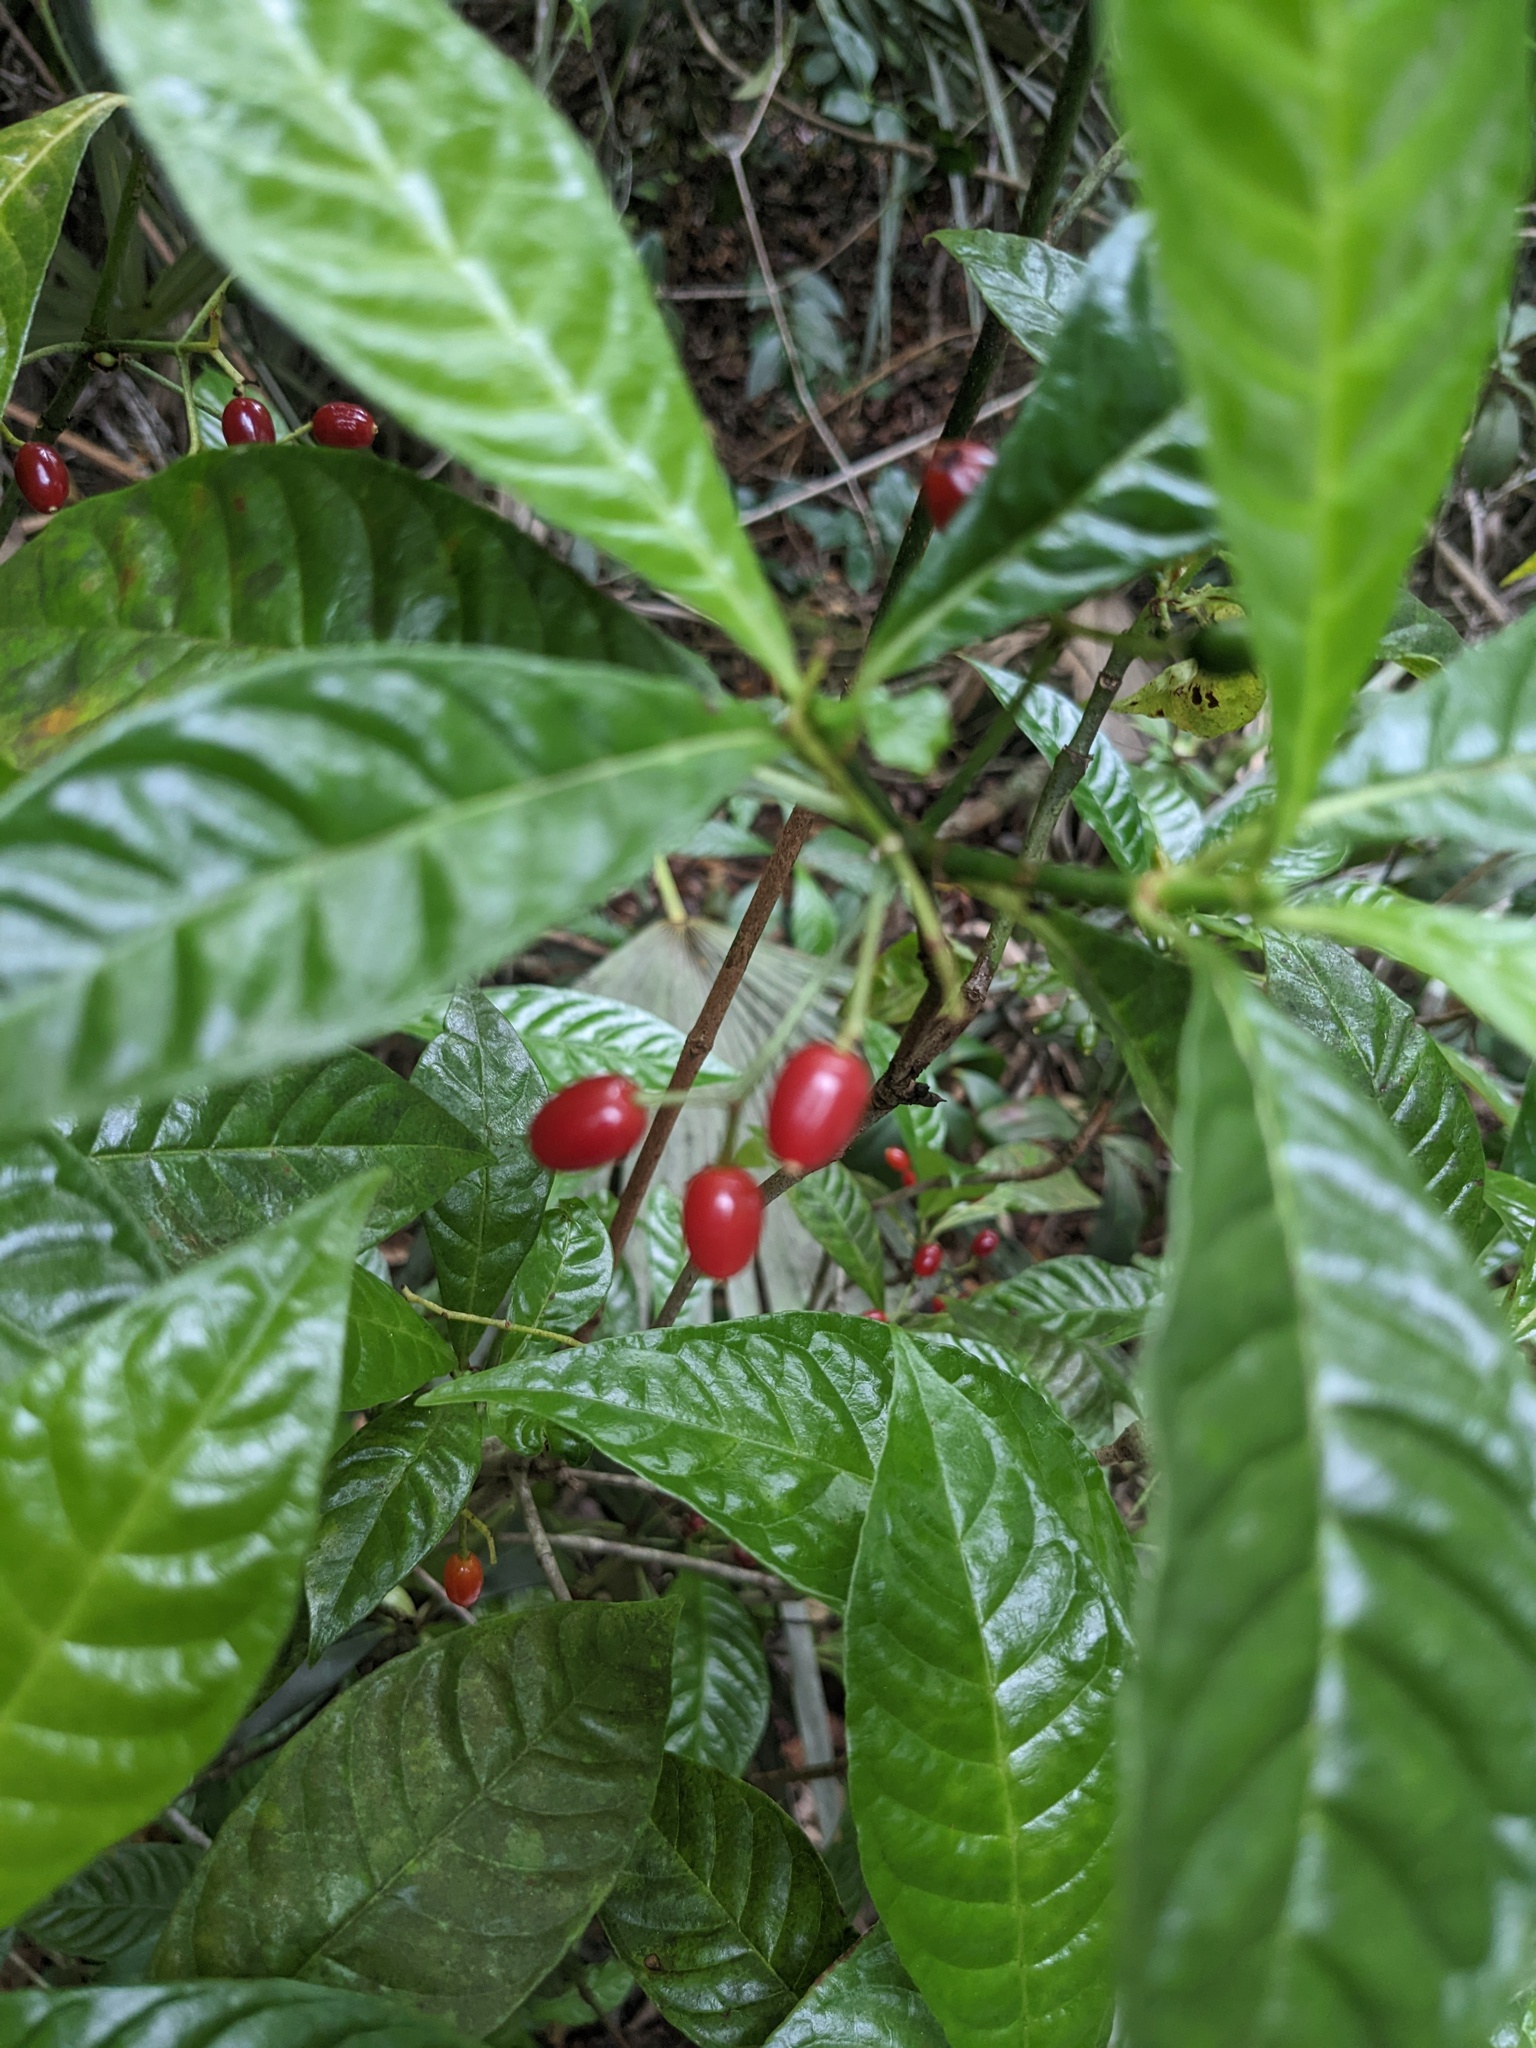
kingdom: Plantae
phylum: Tracheophyta
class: Magnoliopsida
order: Gentianales
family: Rubiaceae
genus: Psychotria
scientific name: Psychotria nervosa
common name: Bastard cankerberry
